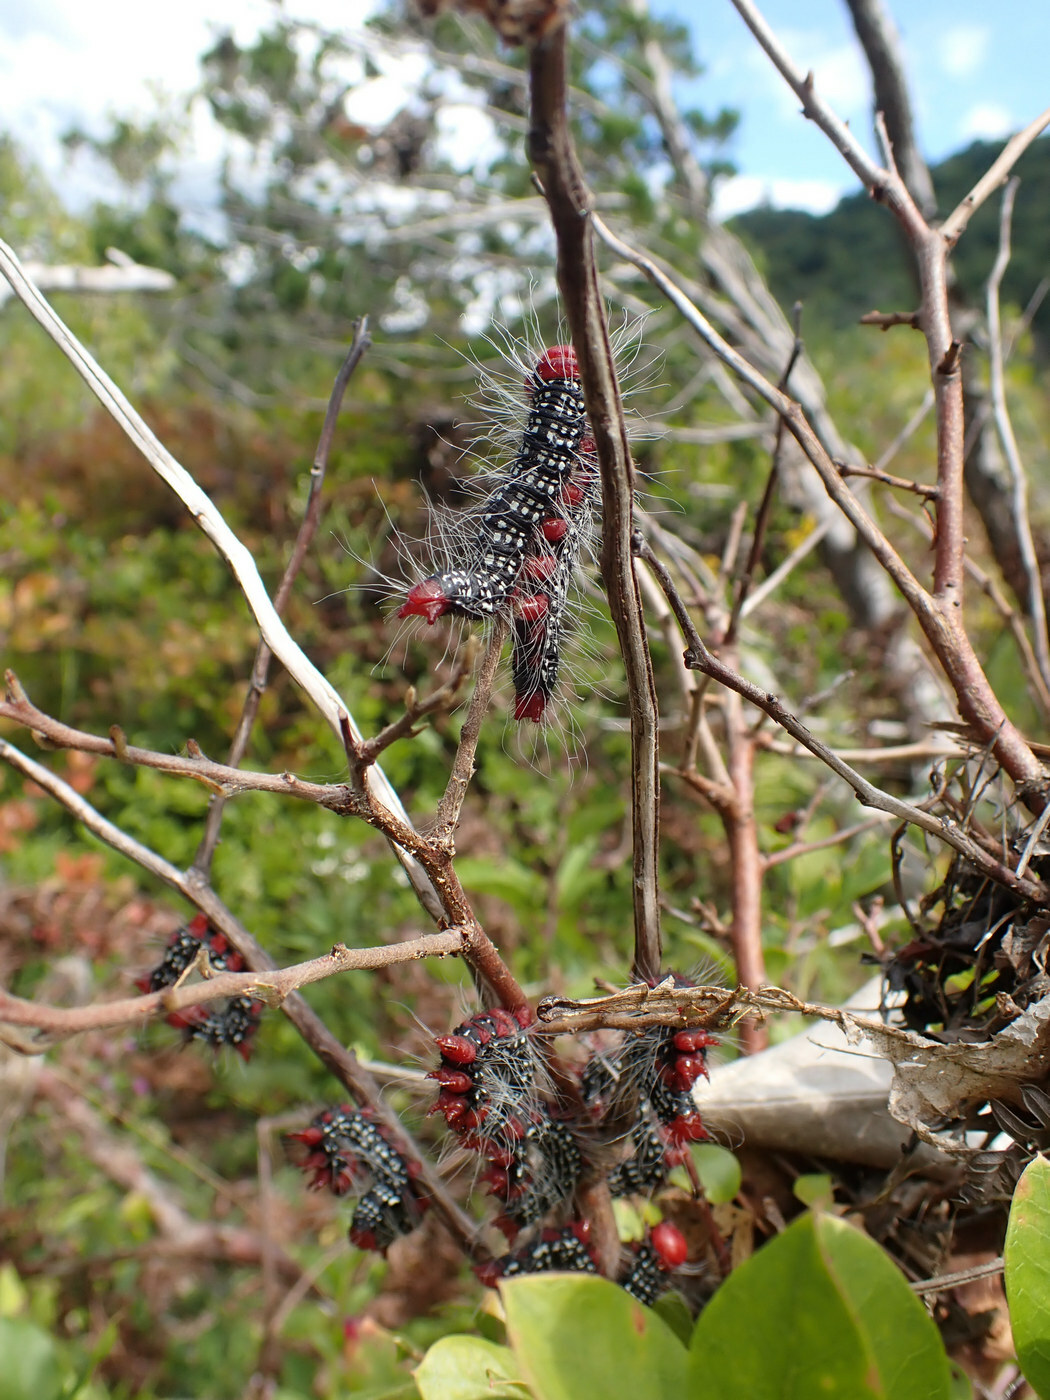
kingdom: Animalia
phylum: Arthropoda
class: Insecta
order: Lepidoptera
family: Notodontidae
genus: Datana
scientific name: Datana major
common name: Azalea caterpillar
